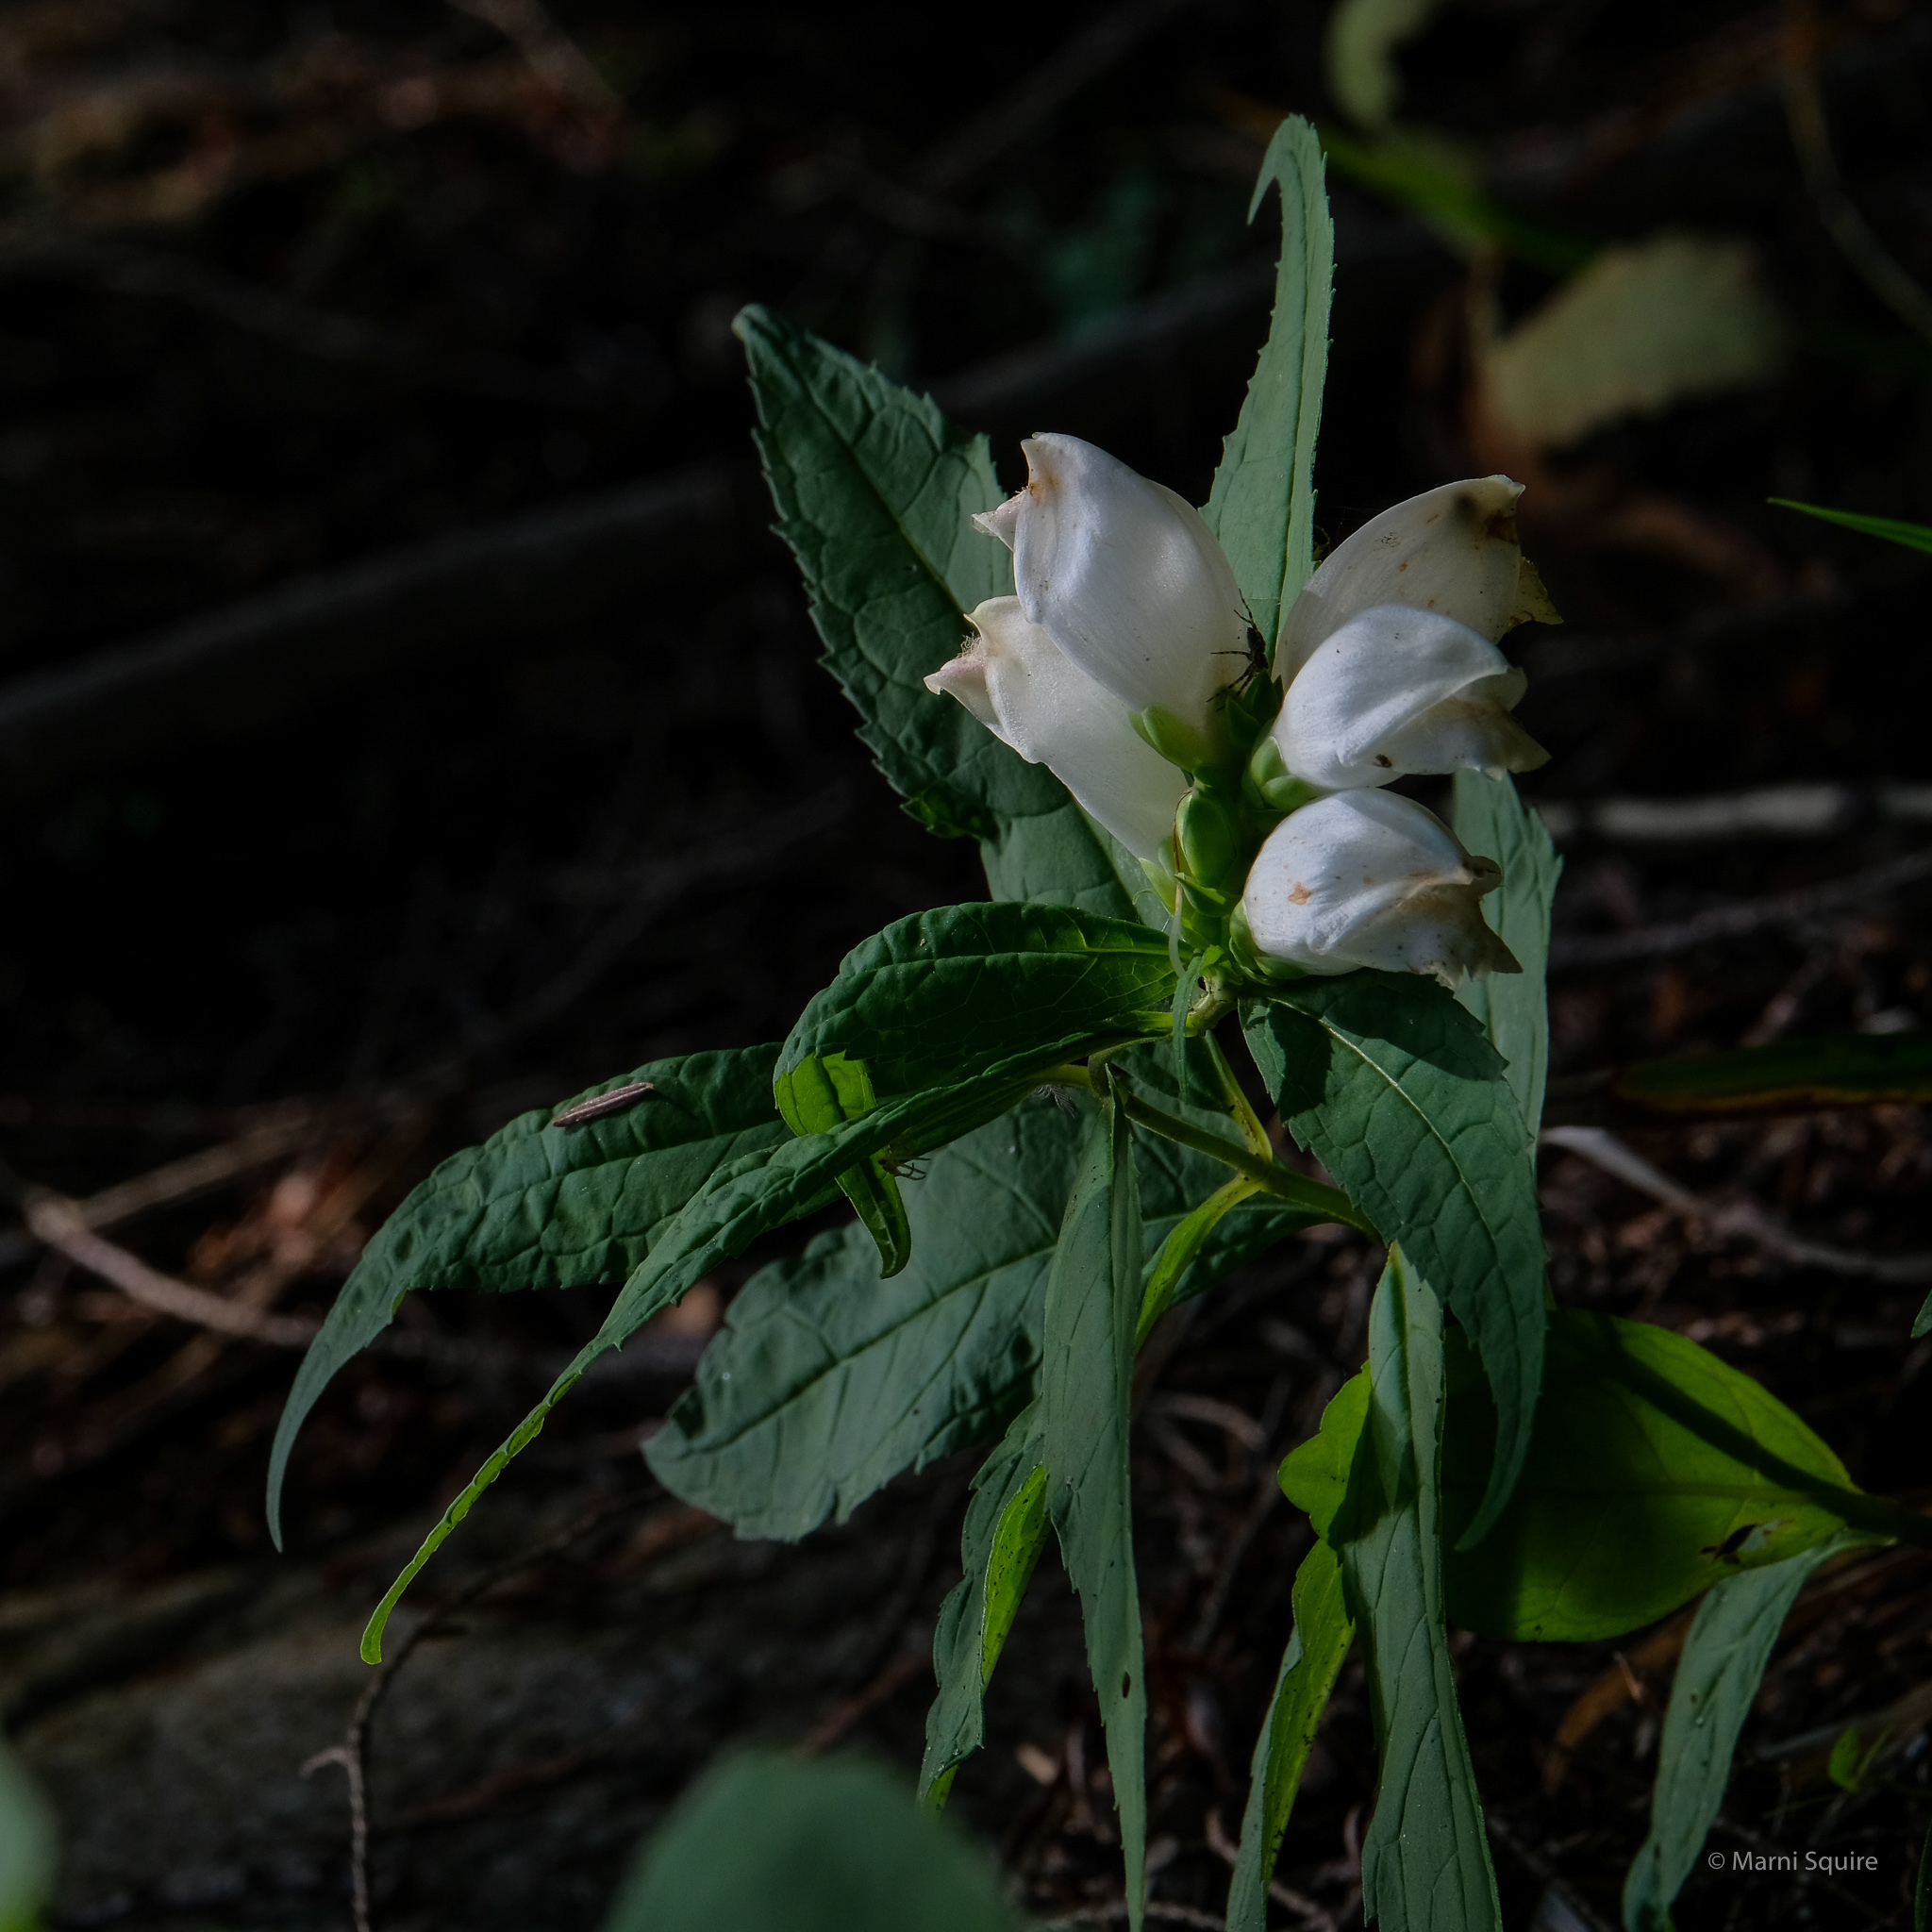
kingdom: Plantae
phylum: Tracheophyta
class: Magnoliopsida
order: Lamiales
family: Plantaginaceae
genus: Chelone
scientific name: Chelone glabra
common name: Snakehead
